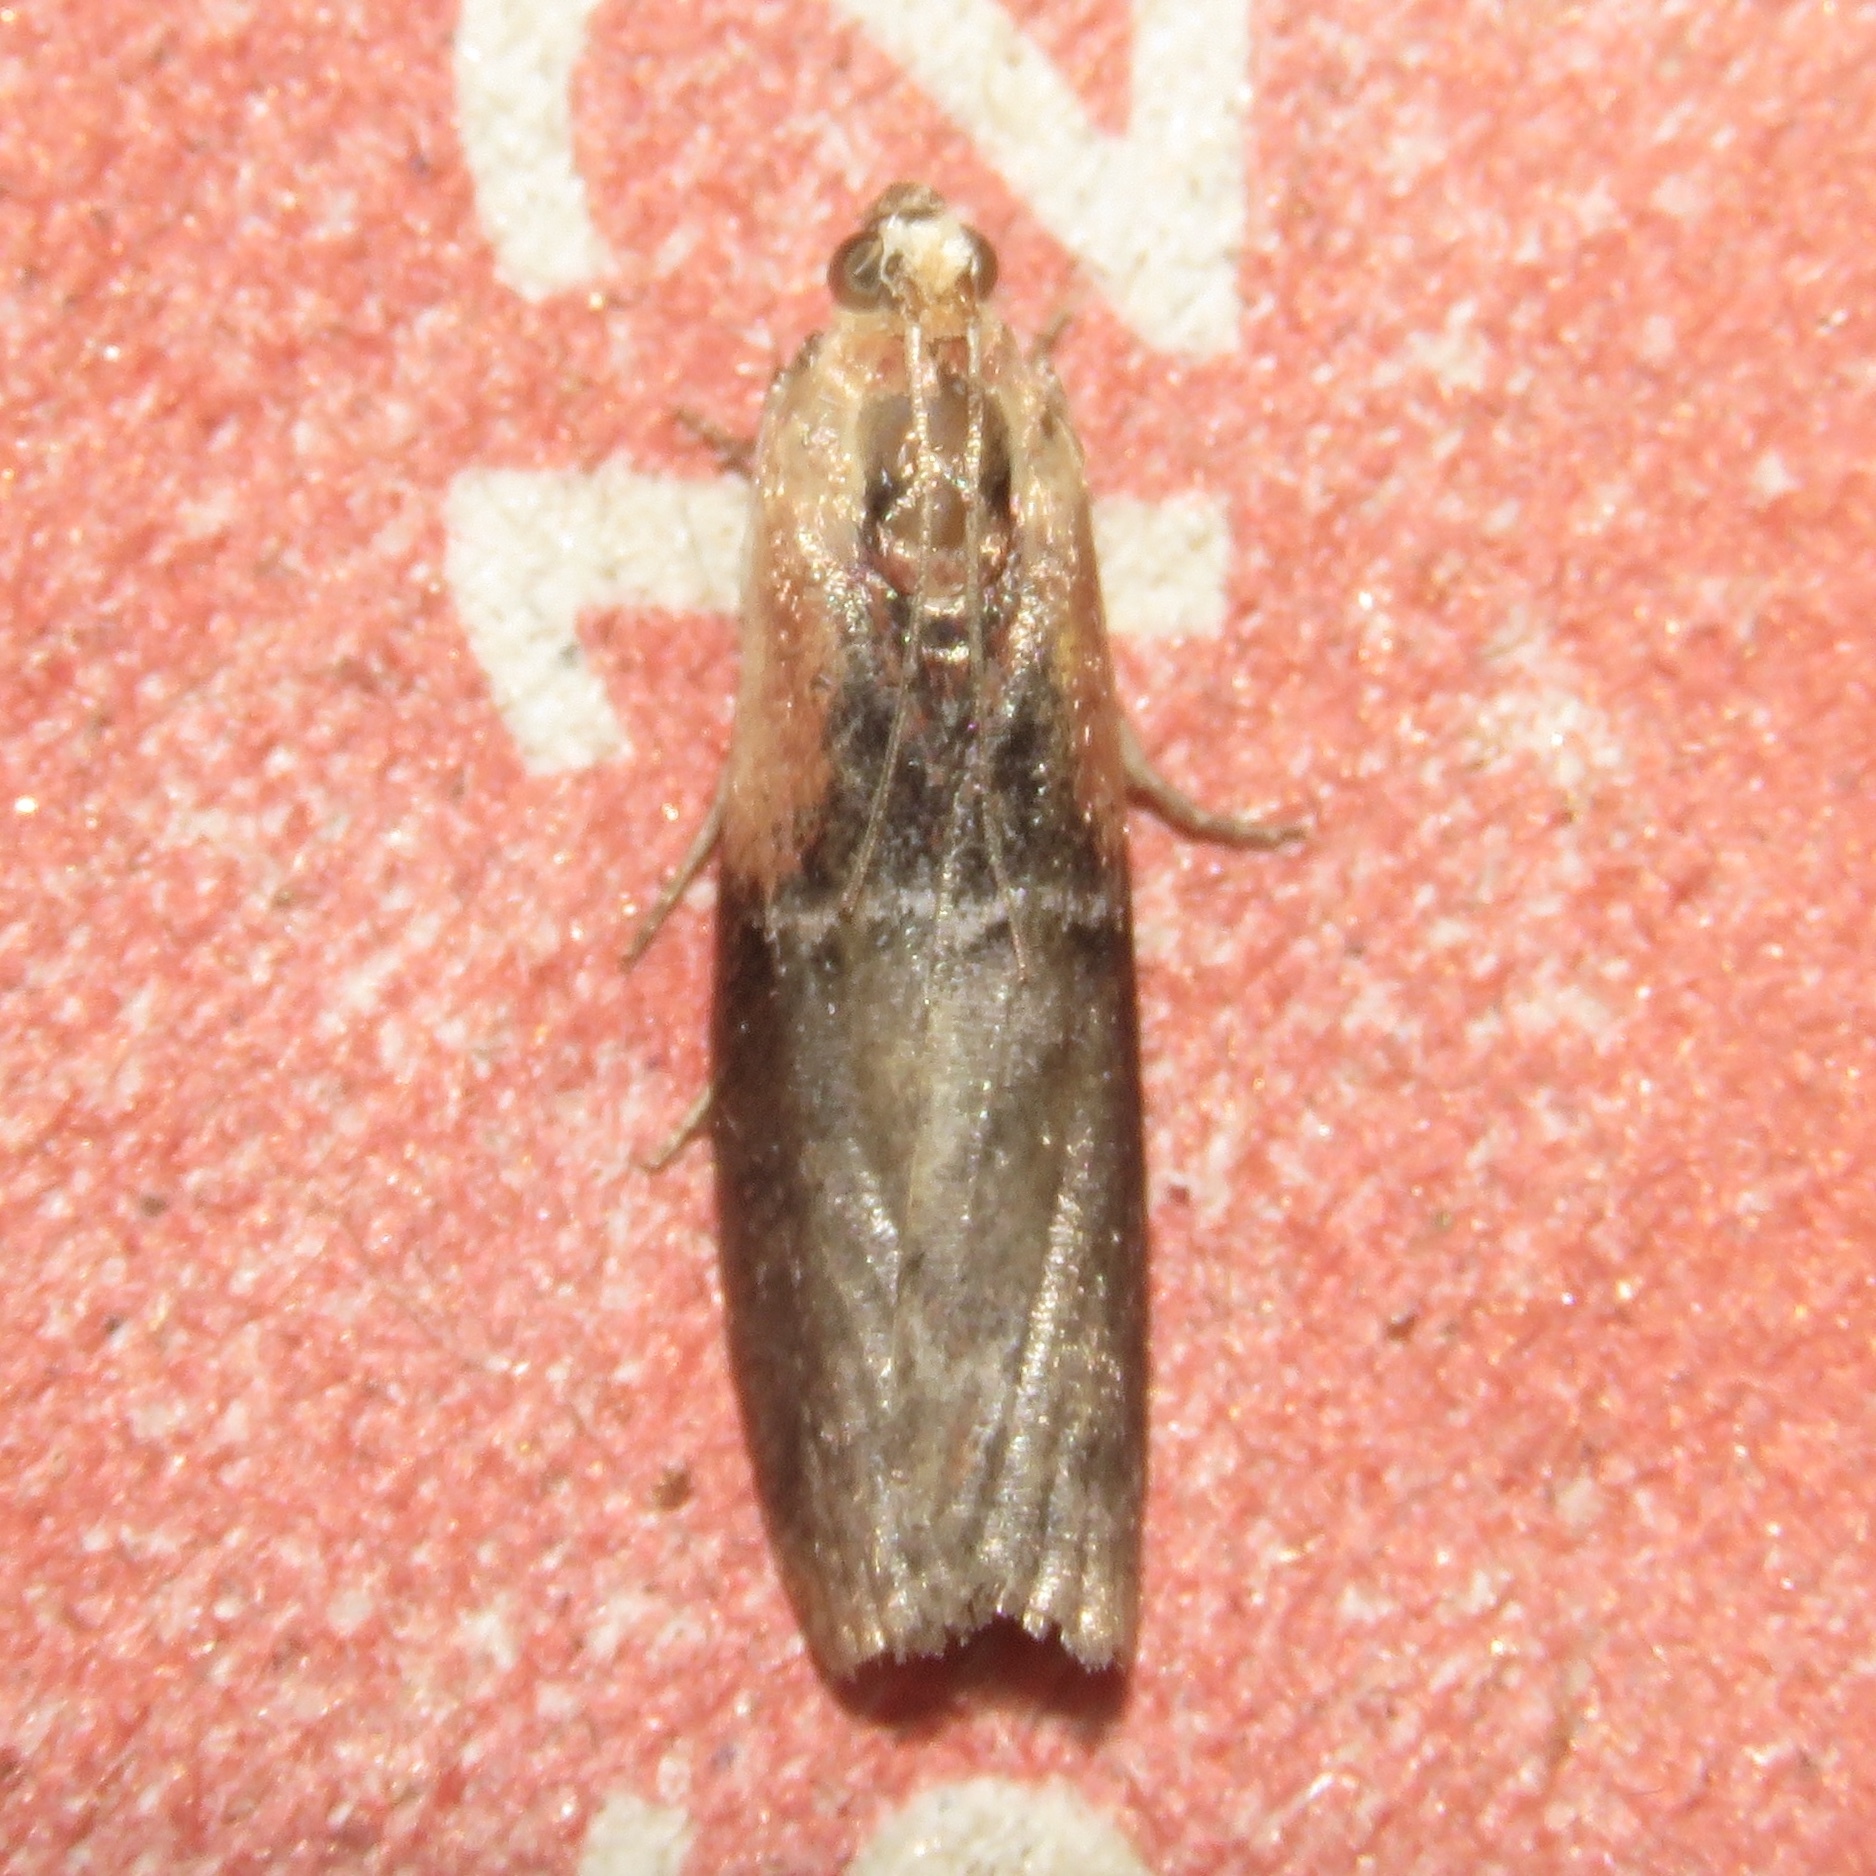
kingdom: Animalia
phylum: Arthropoda
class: Insecta
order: Lepidoptera
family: Pyralidae
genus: Sciota
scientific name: Sciota basilaris
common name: Yellow-shouldered leafroller
